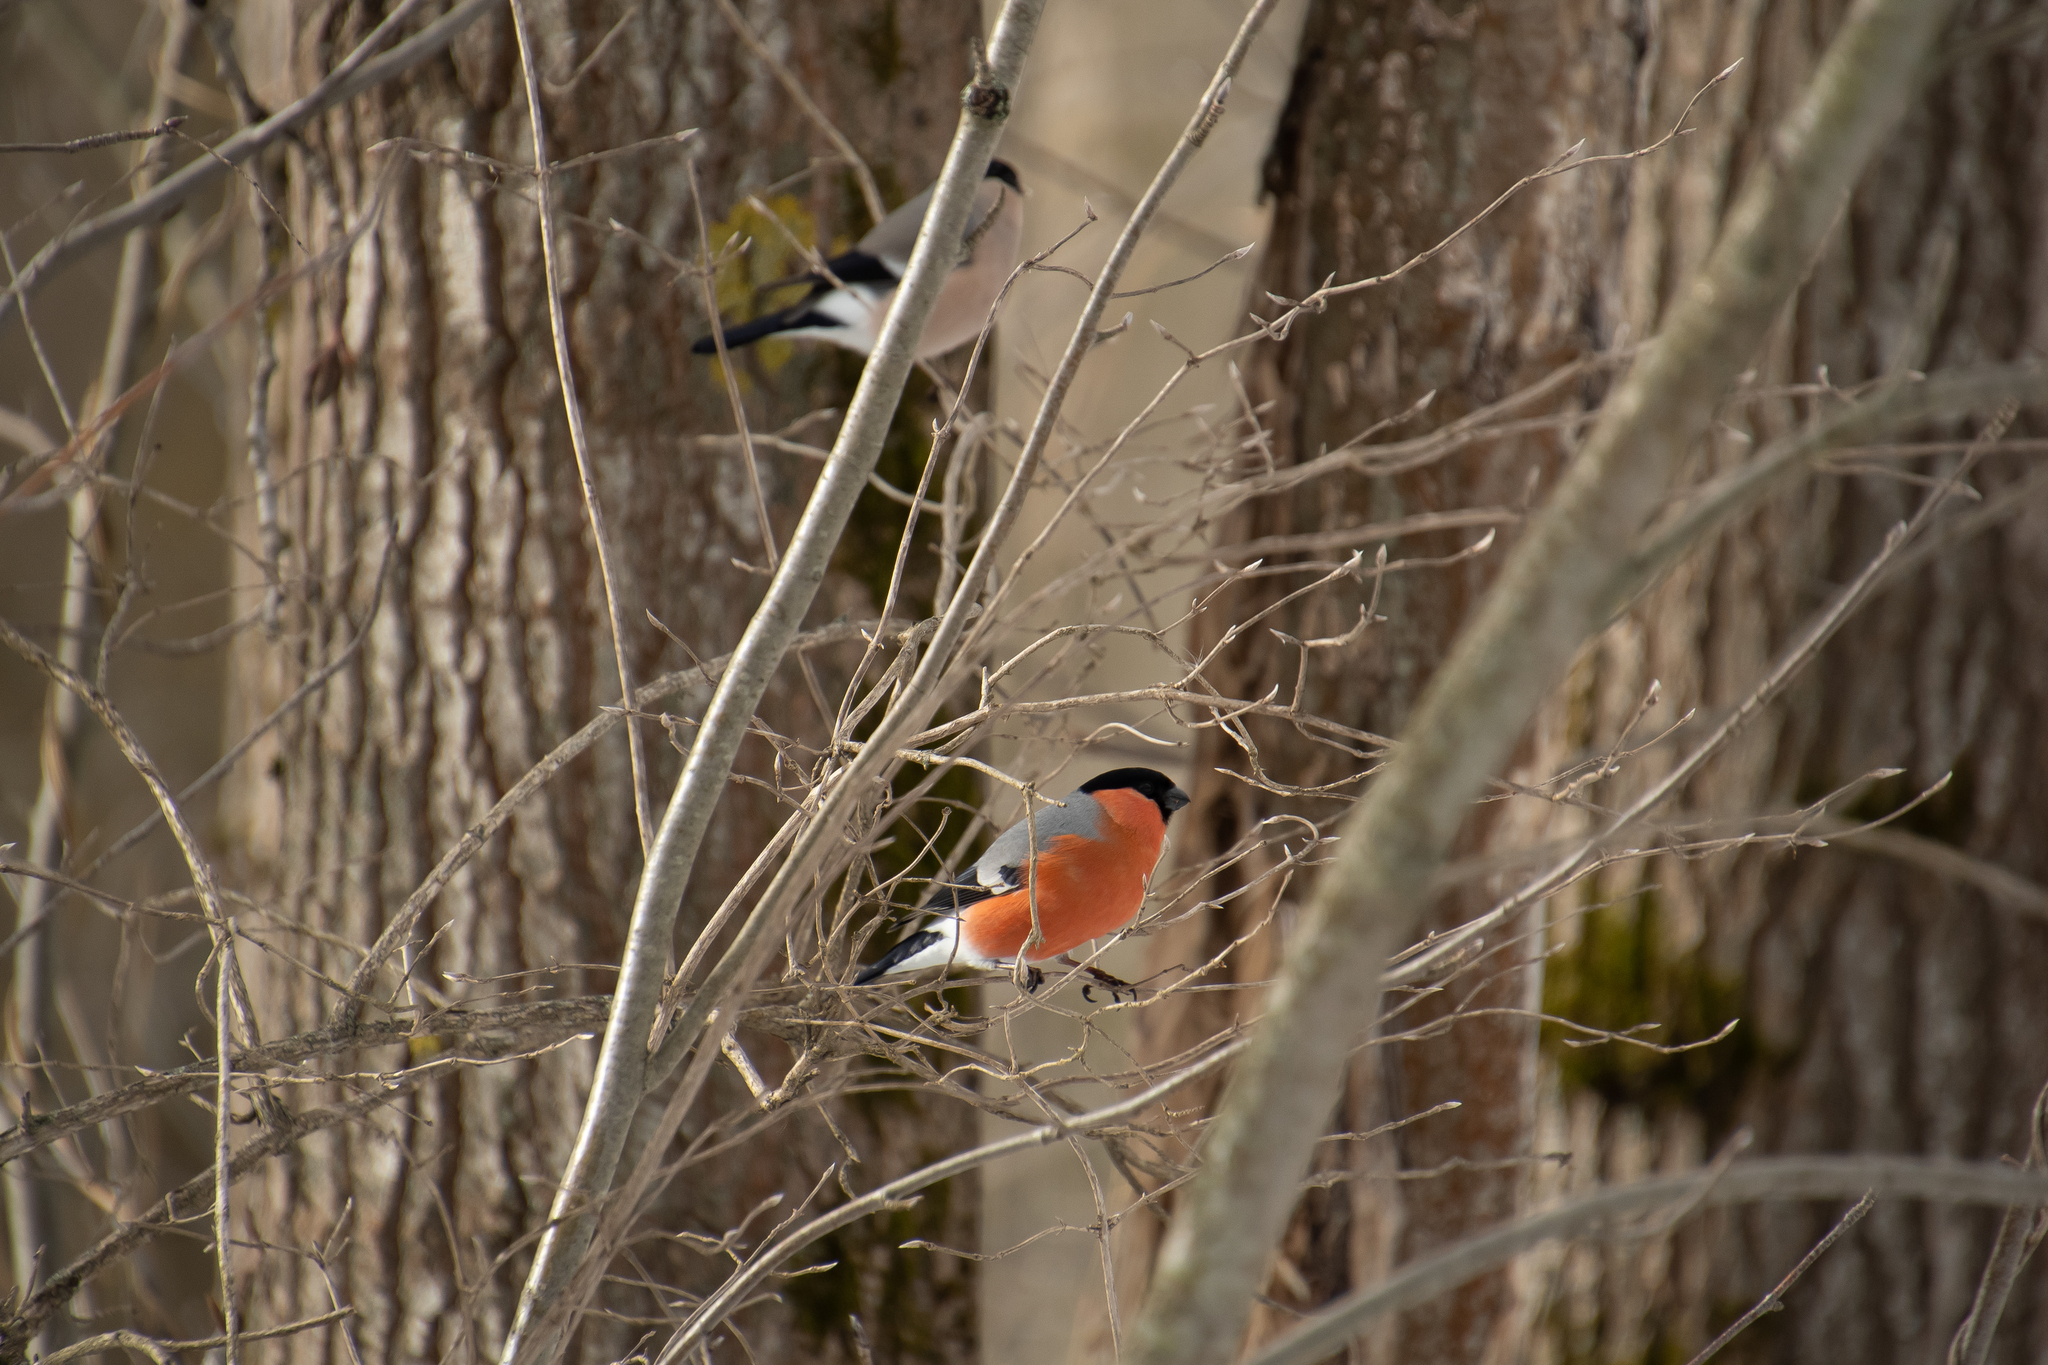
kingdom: Animalia
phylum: Chordata
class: Aves
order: Passeriformes
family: Fringillidae
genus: Pyrrhula
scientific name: Pyrrhula pyrrhula
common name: Eurasian bullfinch
